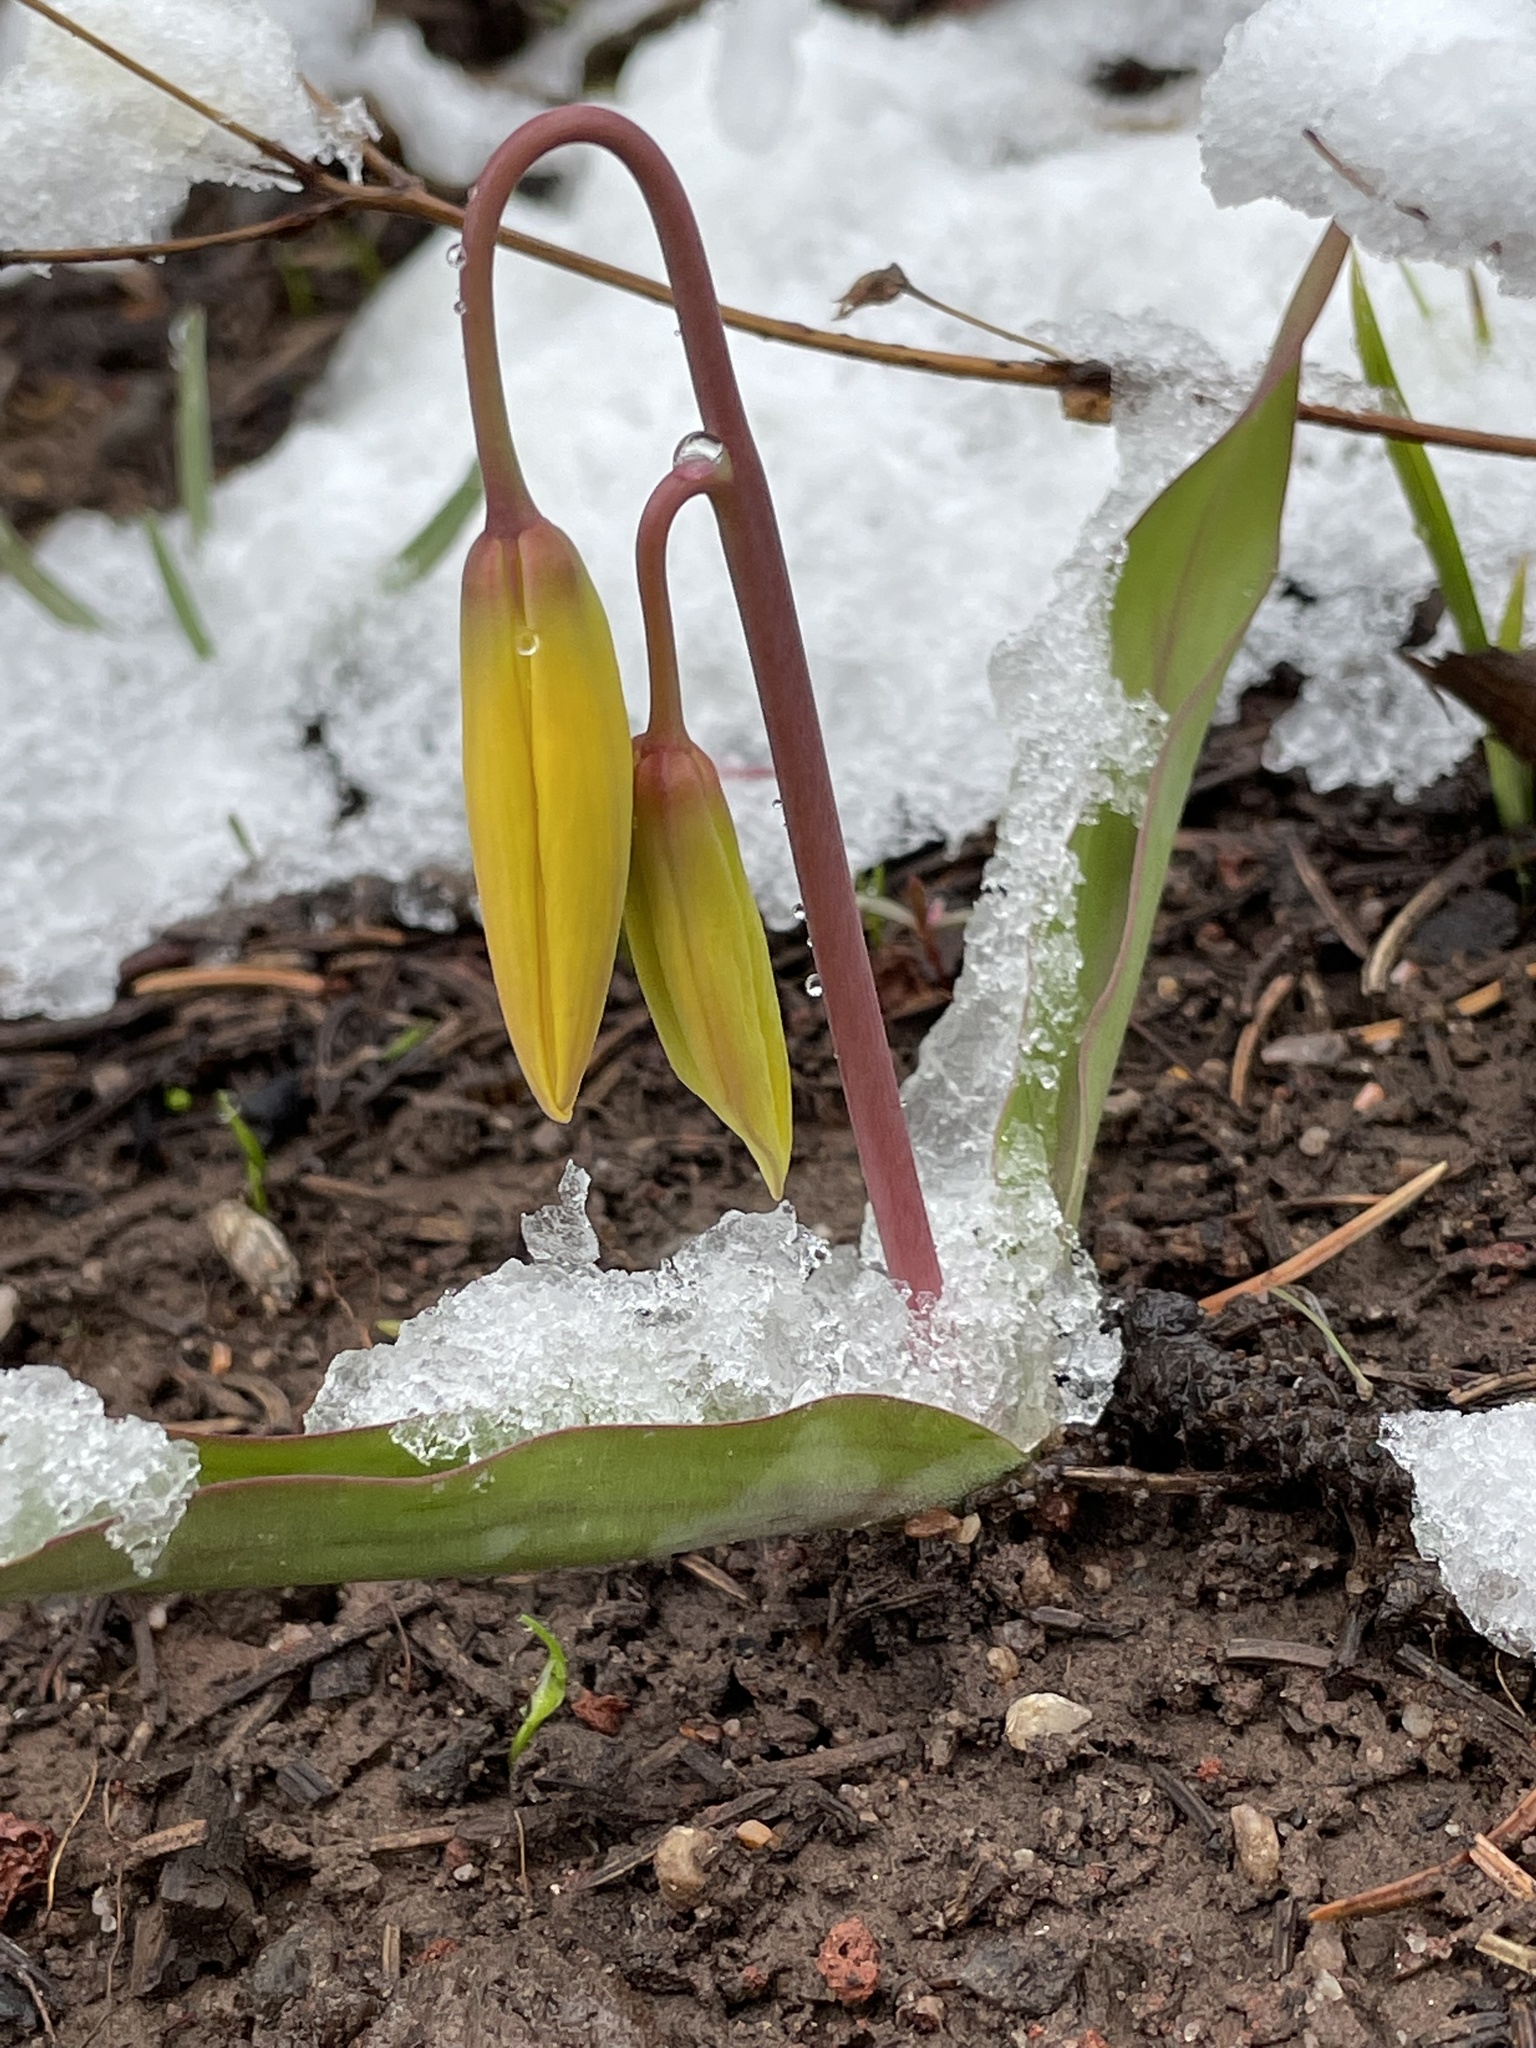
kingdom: Plantae
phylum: Tracheophyta
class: Liliopsida
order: Liliales
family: Liliaceae
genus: Erythronium
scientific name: Erythronium grandiflorum
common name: Avalanche-lily
